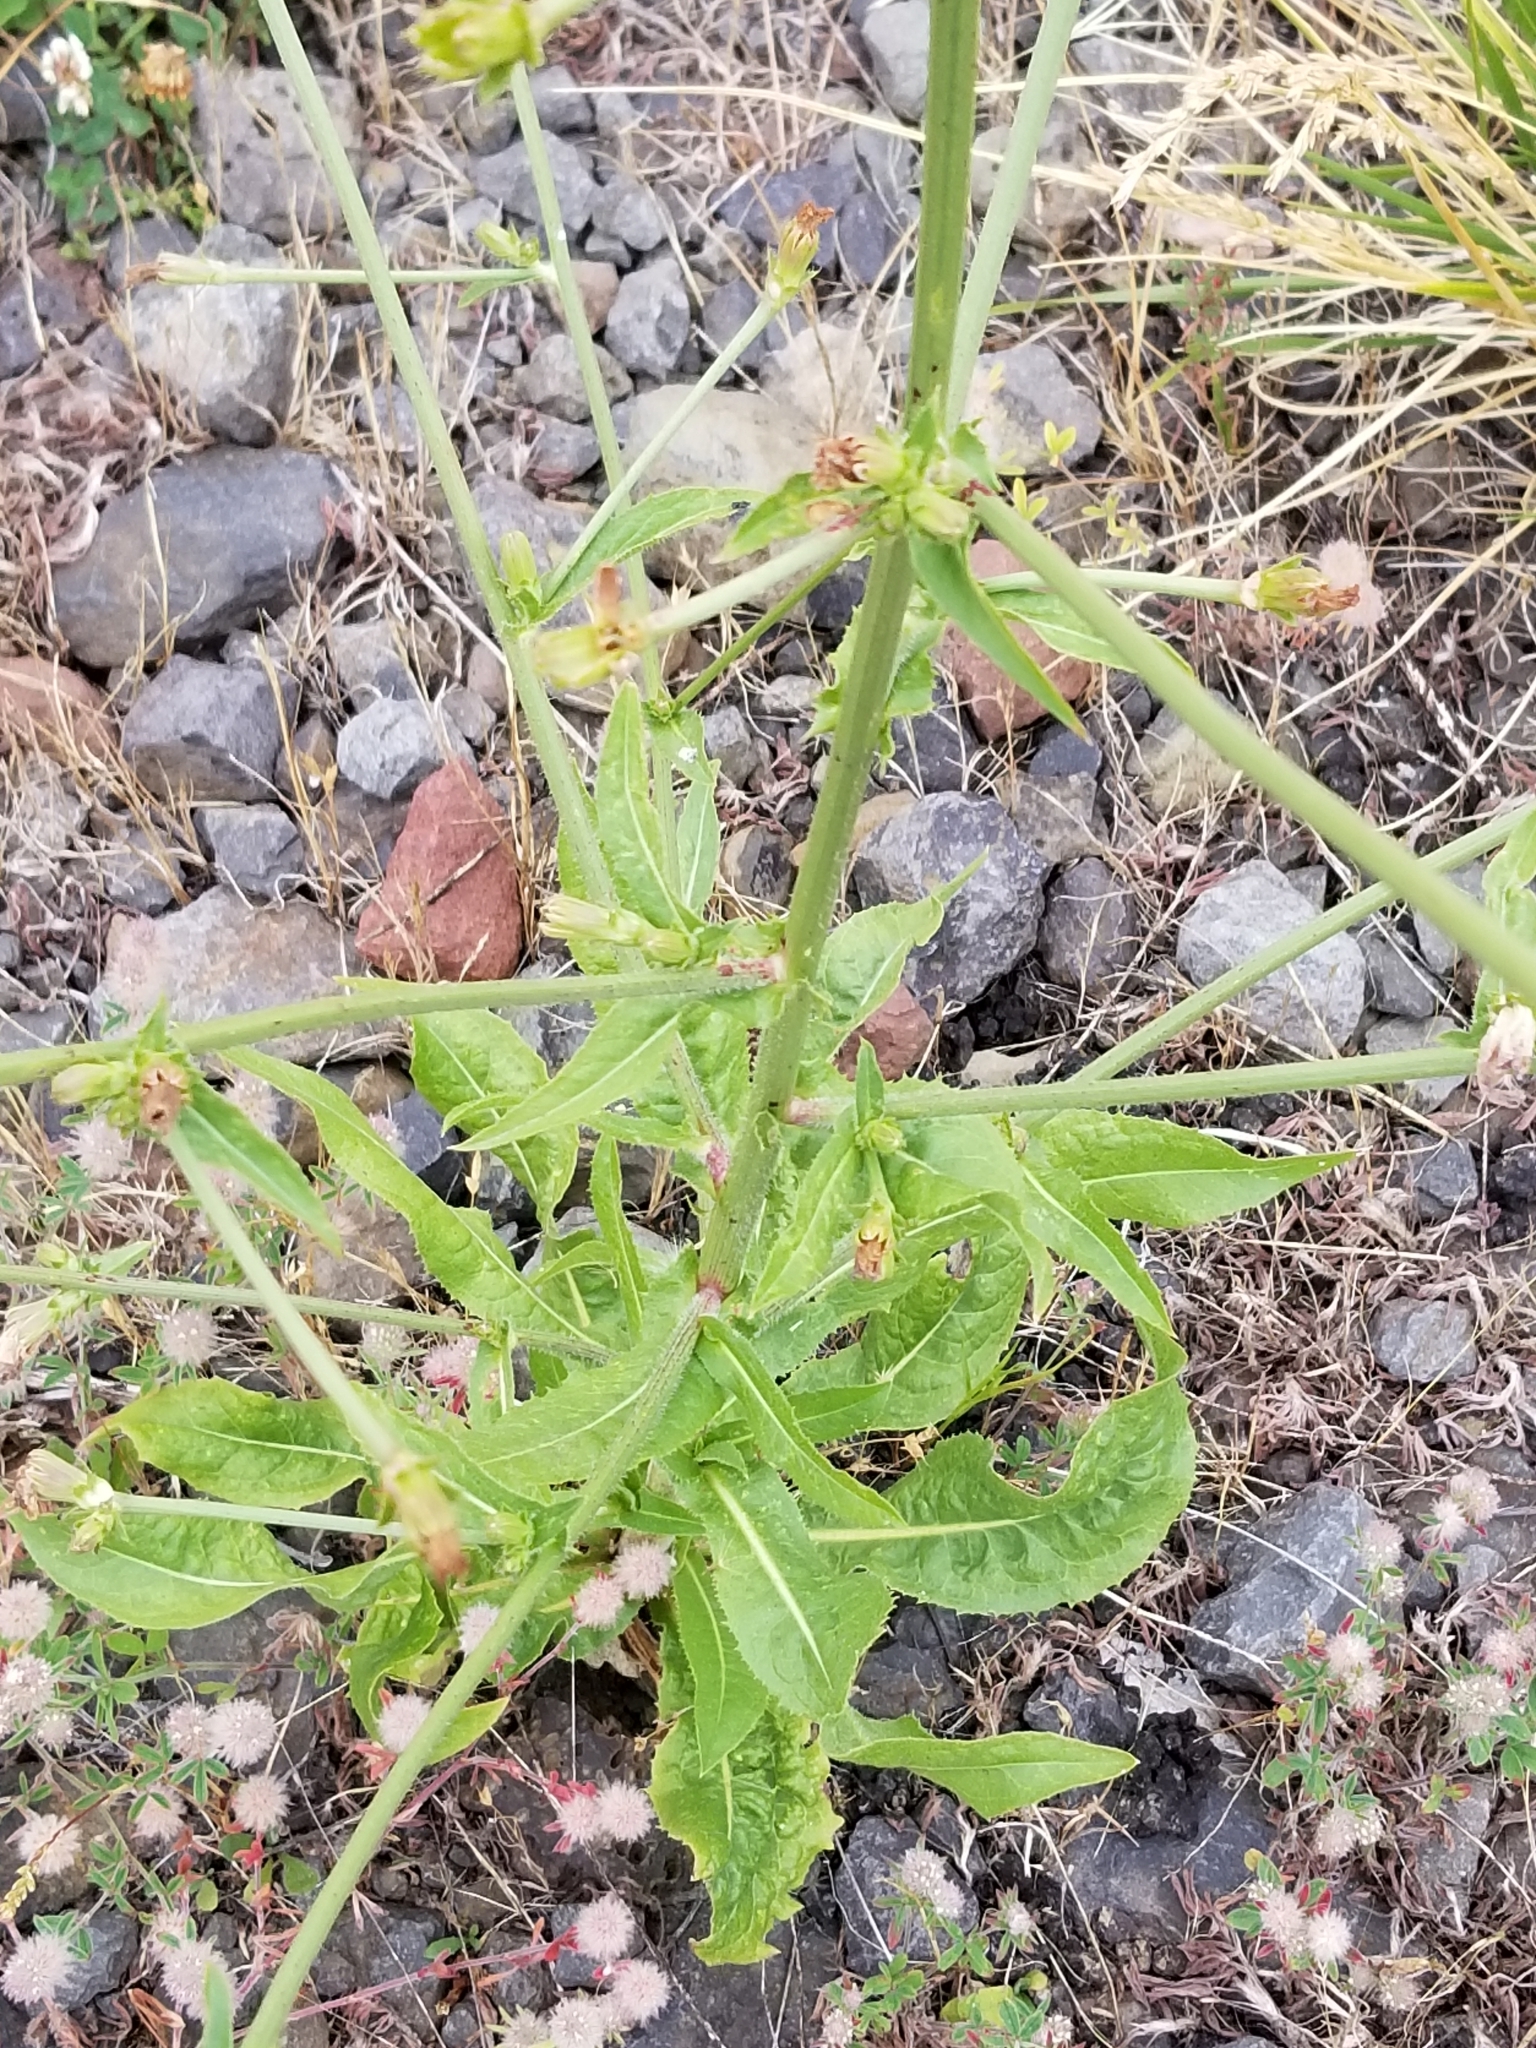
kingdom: Plantae
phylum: Tracheophyta
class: Magnoliopsida
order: Asterales
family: Asteraceae
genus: Cichorium
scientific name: Cichorium intybus
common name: Chicory
